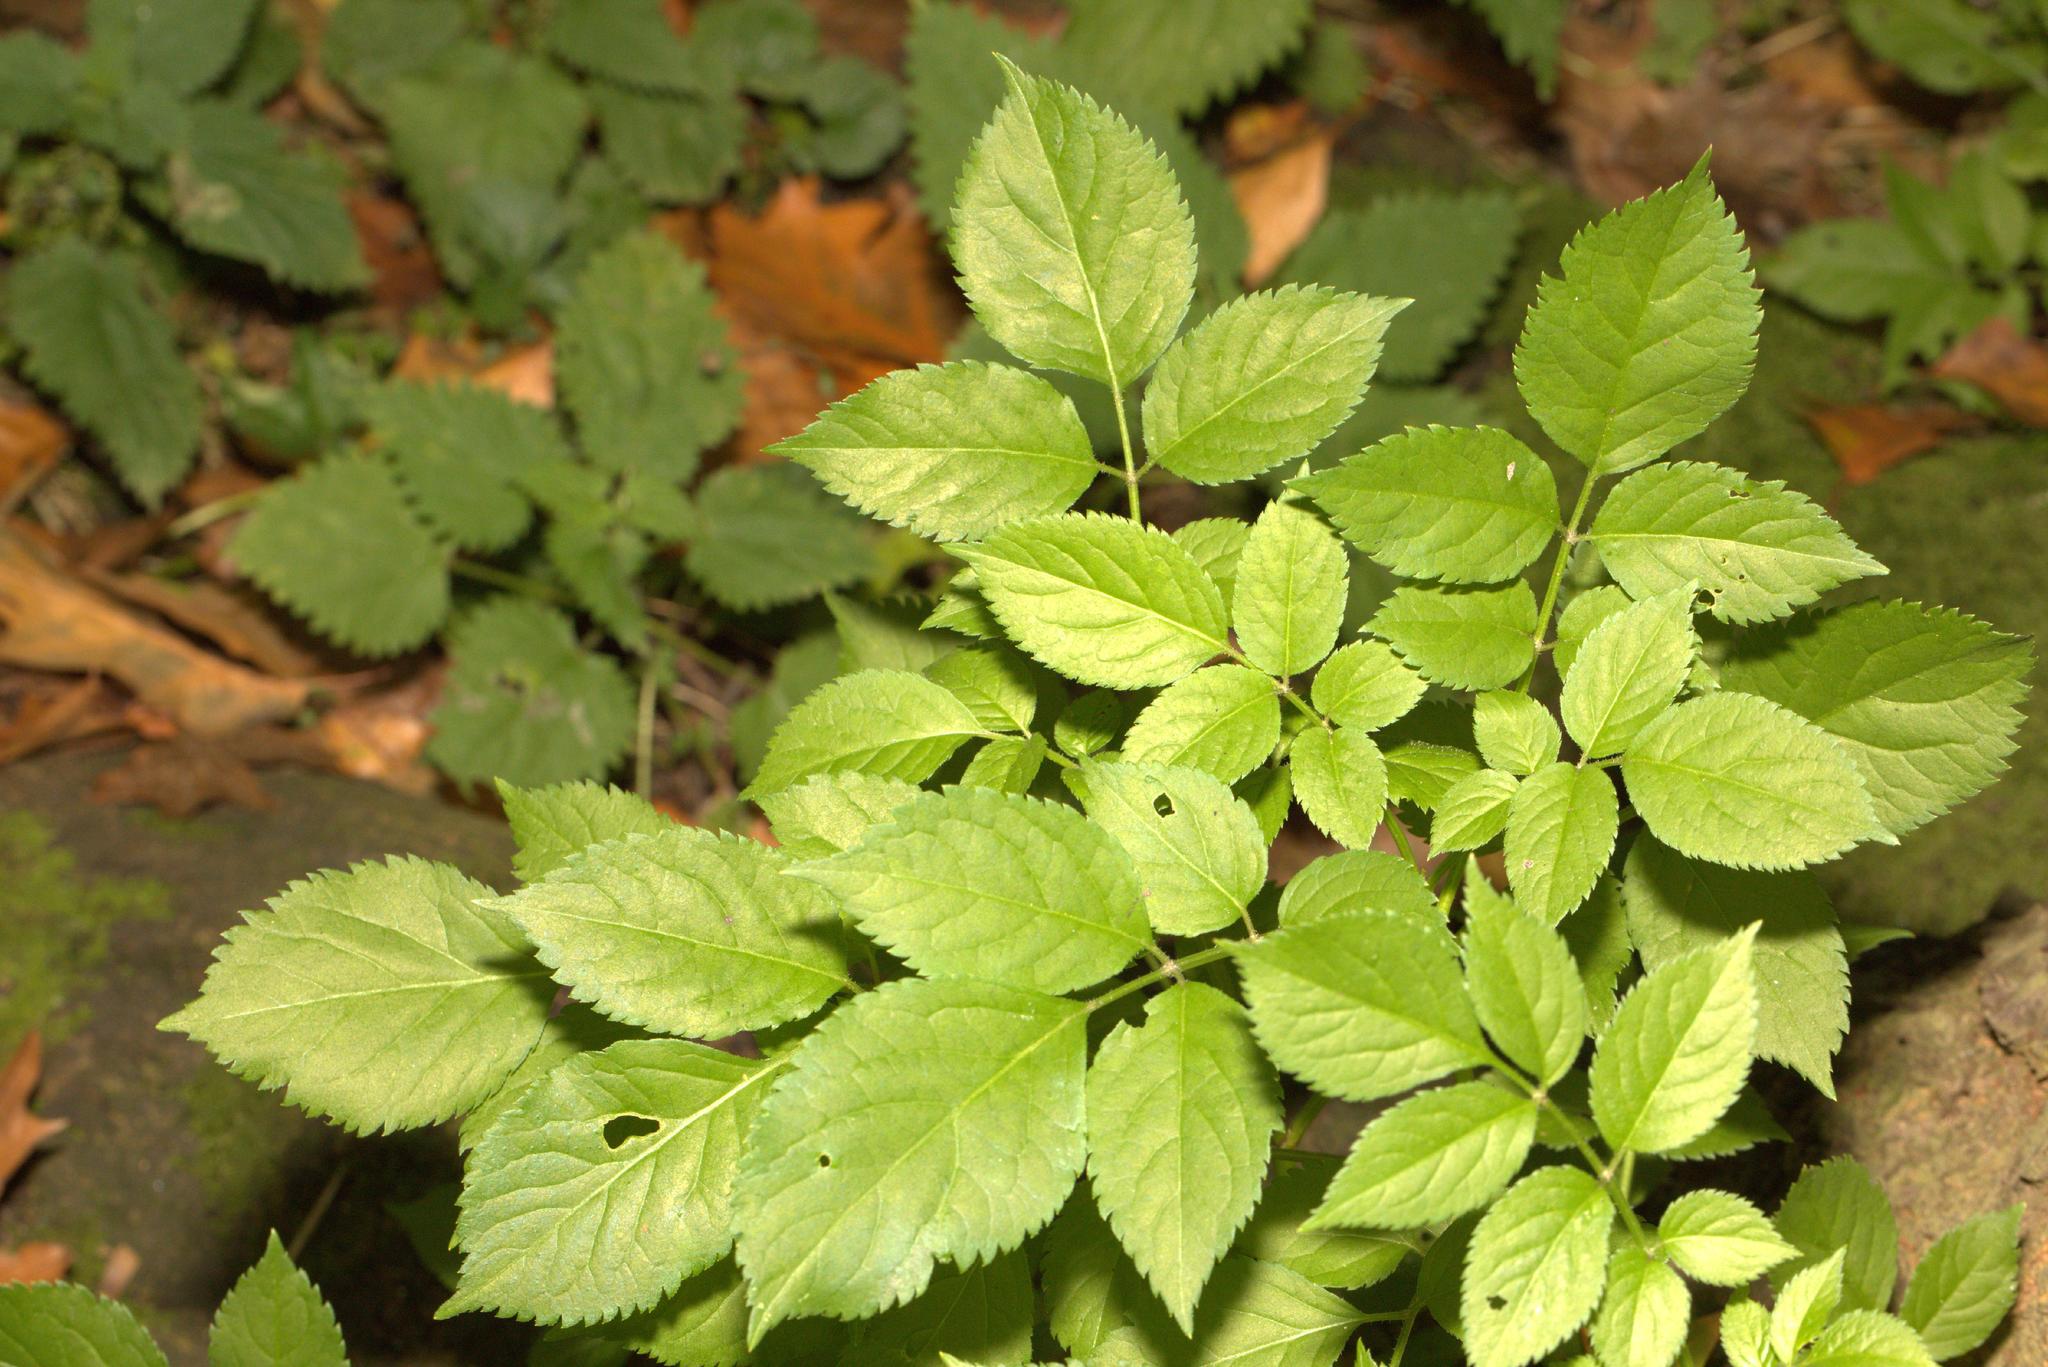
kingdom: Plantae
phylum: Tracheophyta
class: Magnoliopsida
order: Dipsacales
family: Viburnaceae
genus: Sambucus
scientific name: Sambucus nigra
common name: Elder
